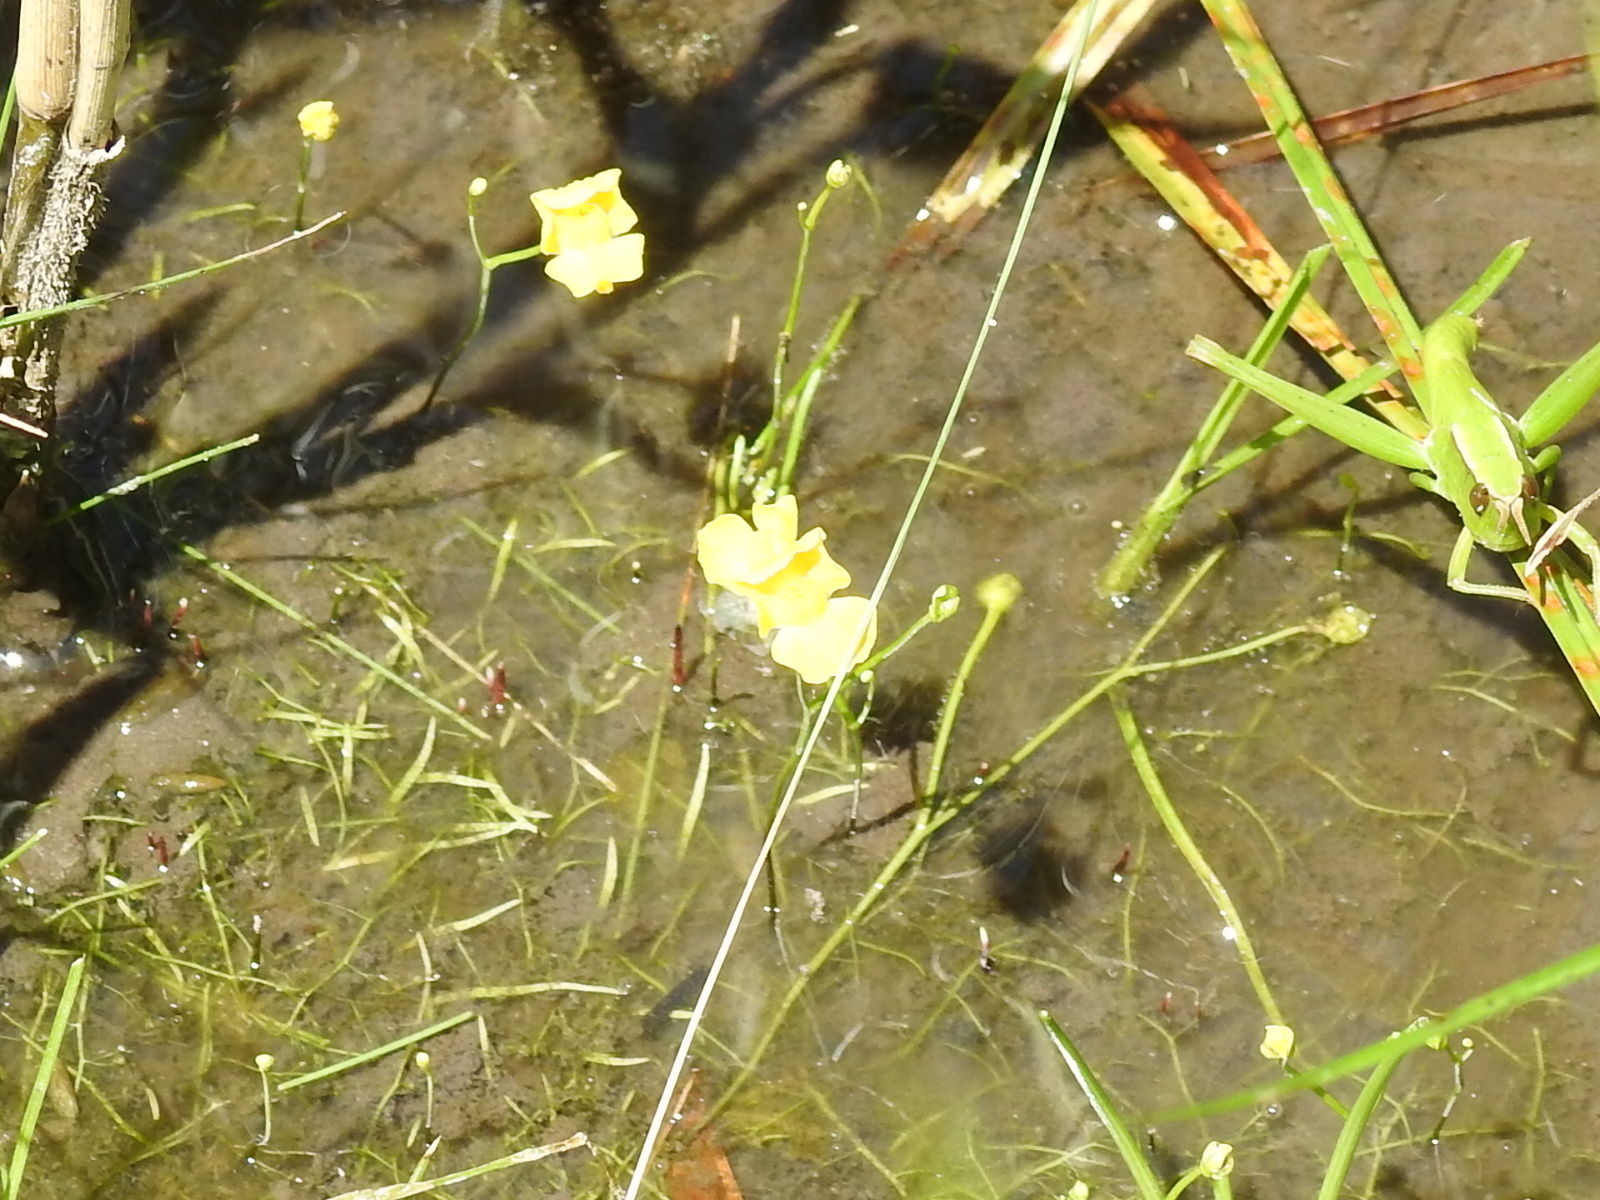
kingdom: Plantae
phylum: Tracheophyta
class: Magnoliopsida
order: Lamiales
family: Lentibulariaceae
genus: Utricularia
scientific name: Utricularia gibba
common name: Humped bladderwort
